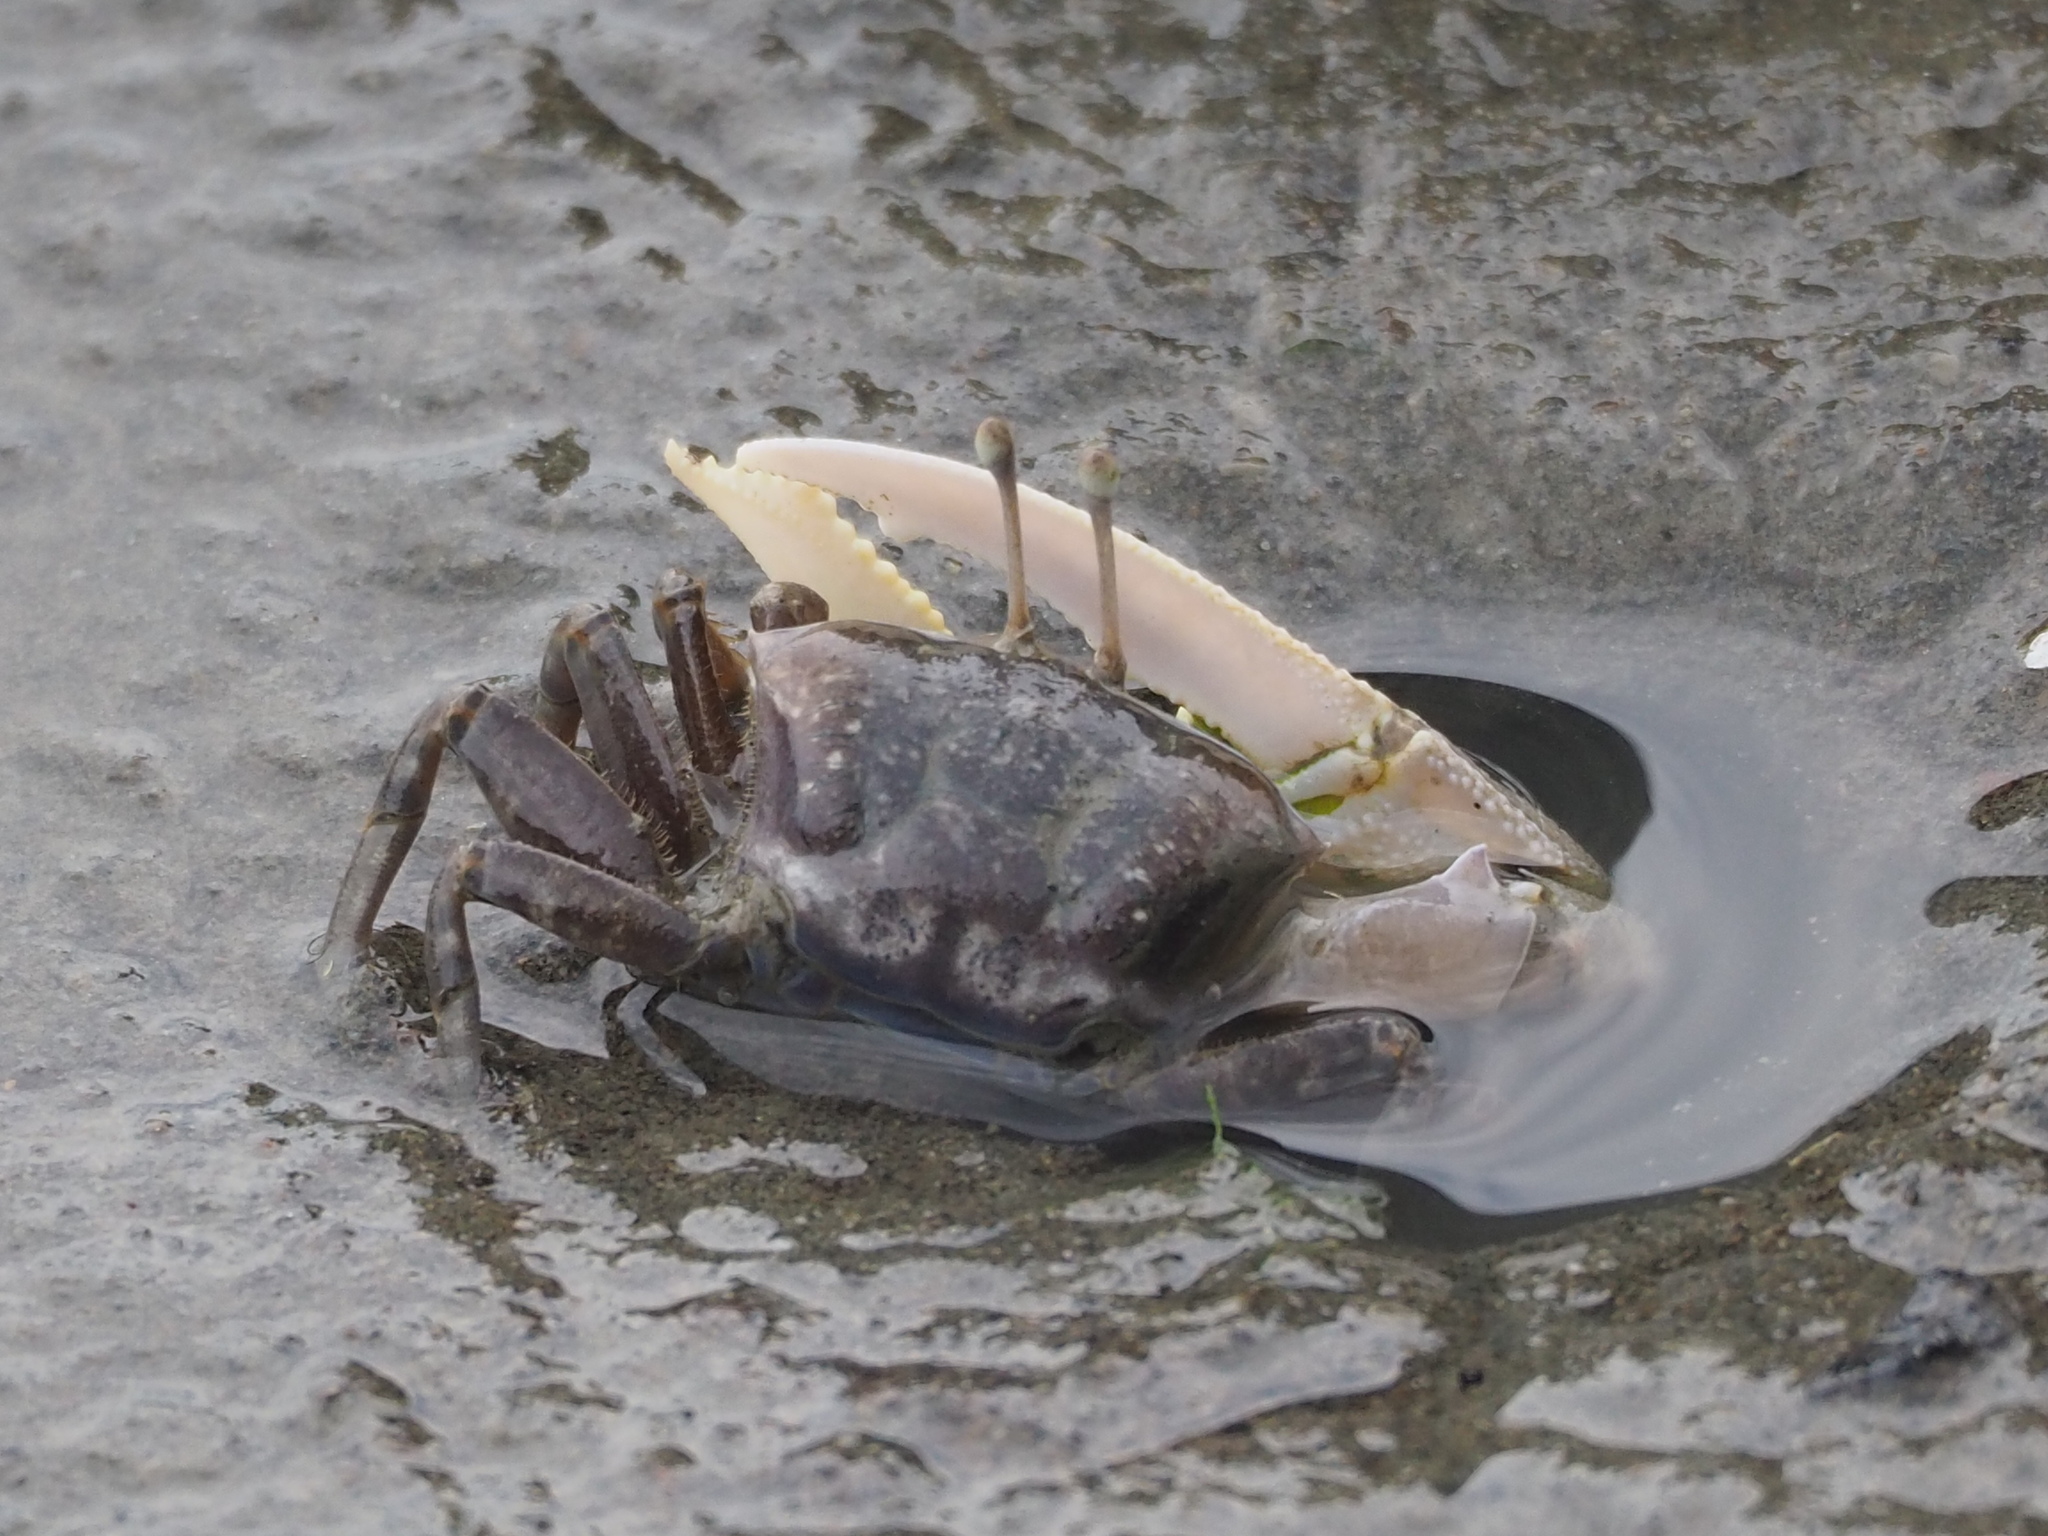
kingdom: Animalia
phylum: Arthropoda
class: Malacostraca
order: Decapoda
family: Ocypodidae
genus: Gelasimus
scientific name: Gelasimus borealis
